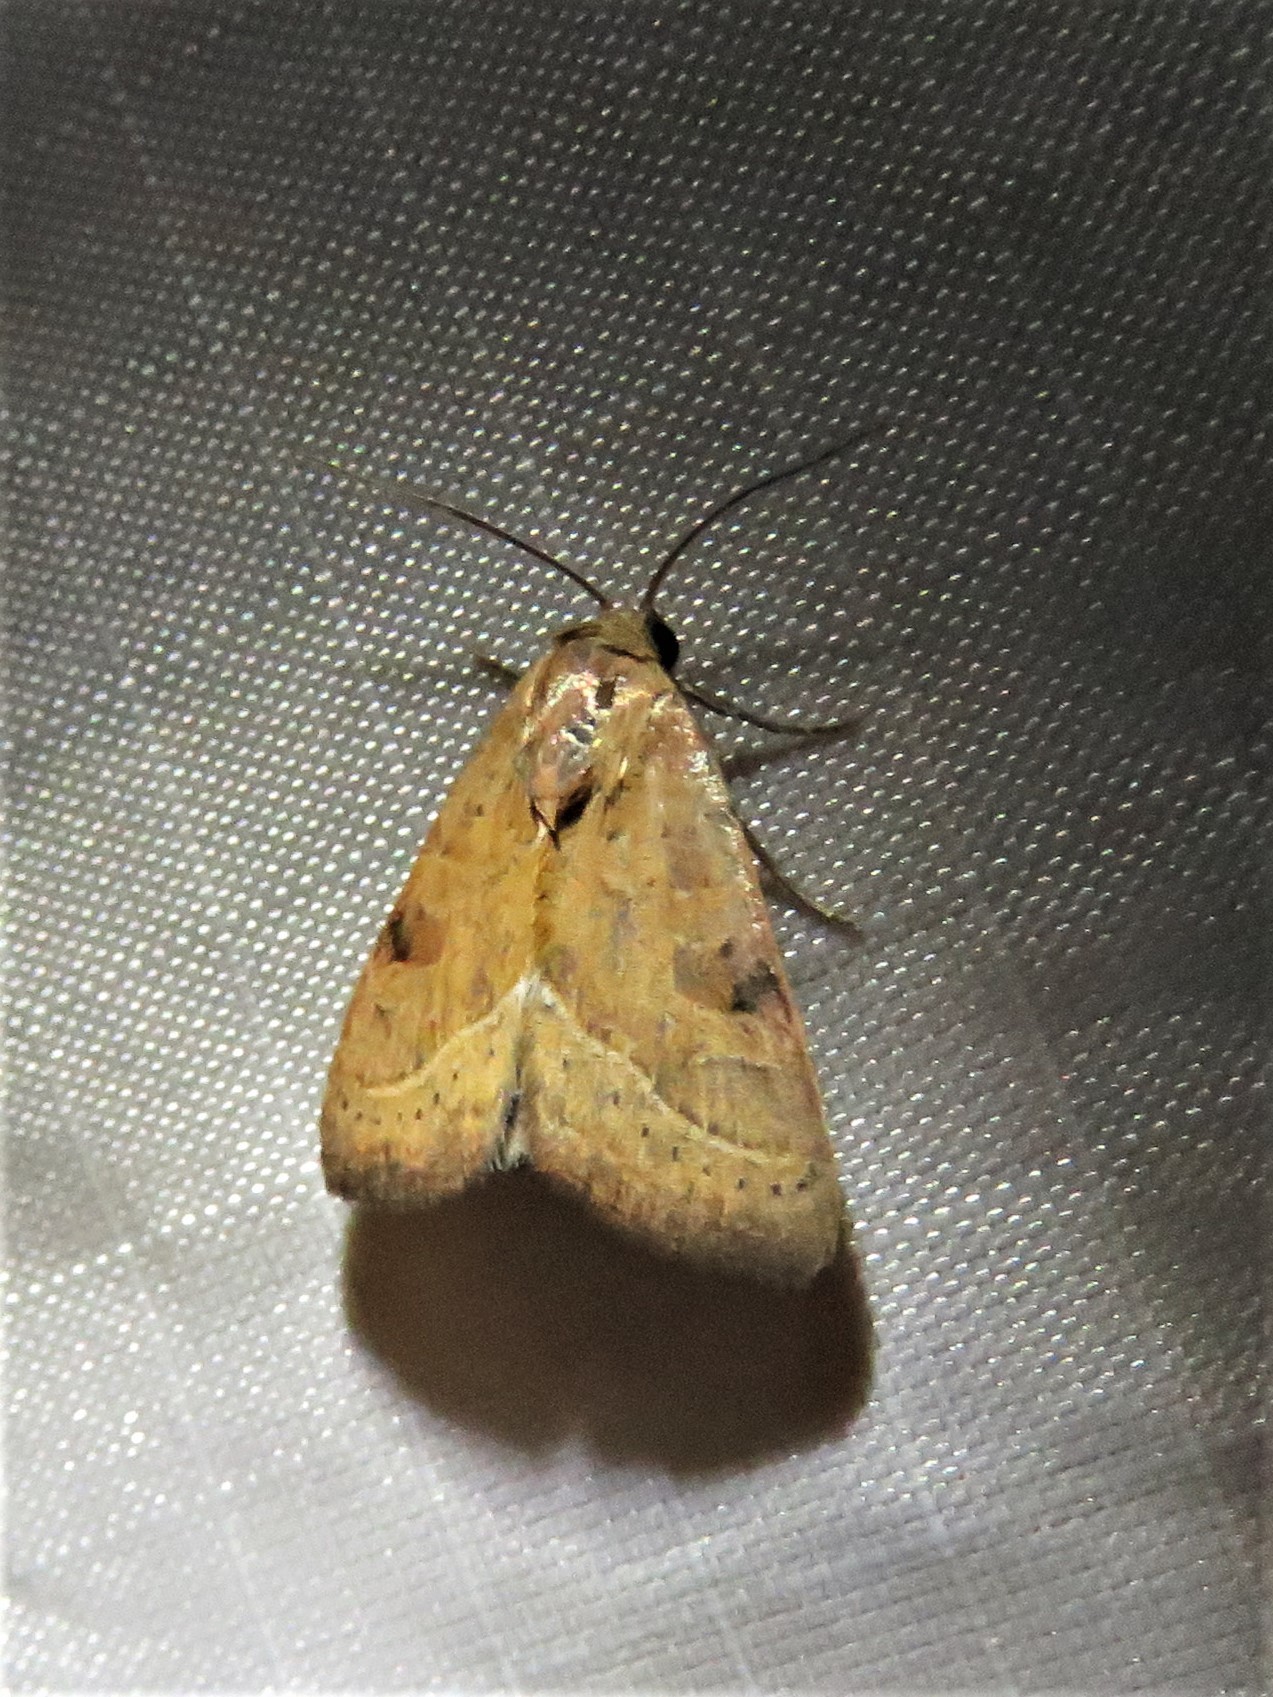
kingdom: Animalia
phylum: Arthropoda
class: Insecta
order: Lepidoptera
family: Noctuidae
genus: Galgula
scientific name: Galgula partita
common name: Wedgeling
